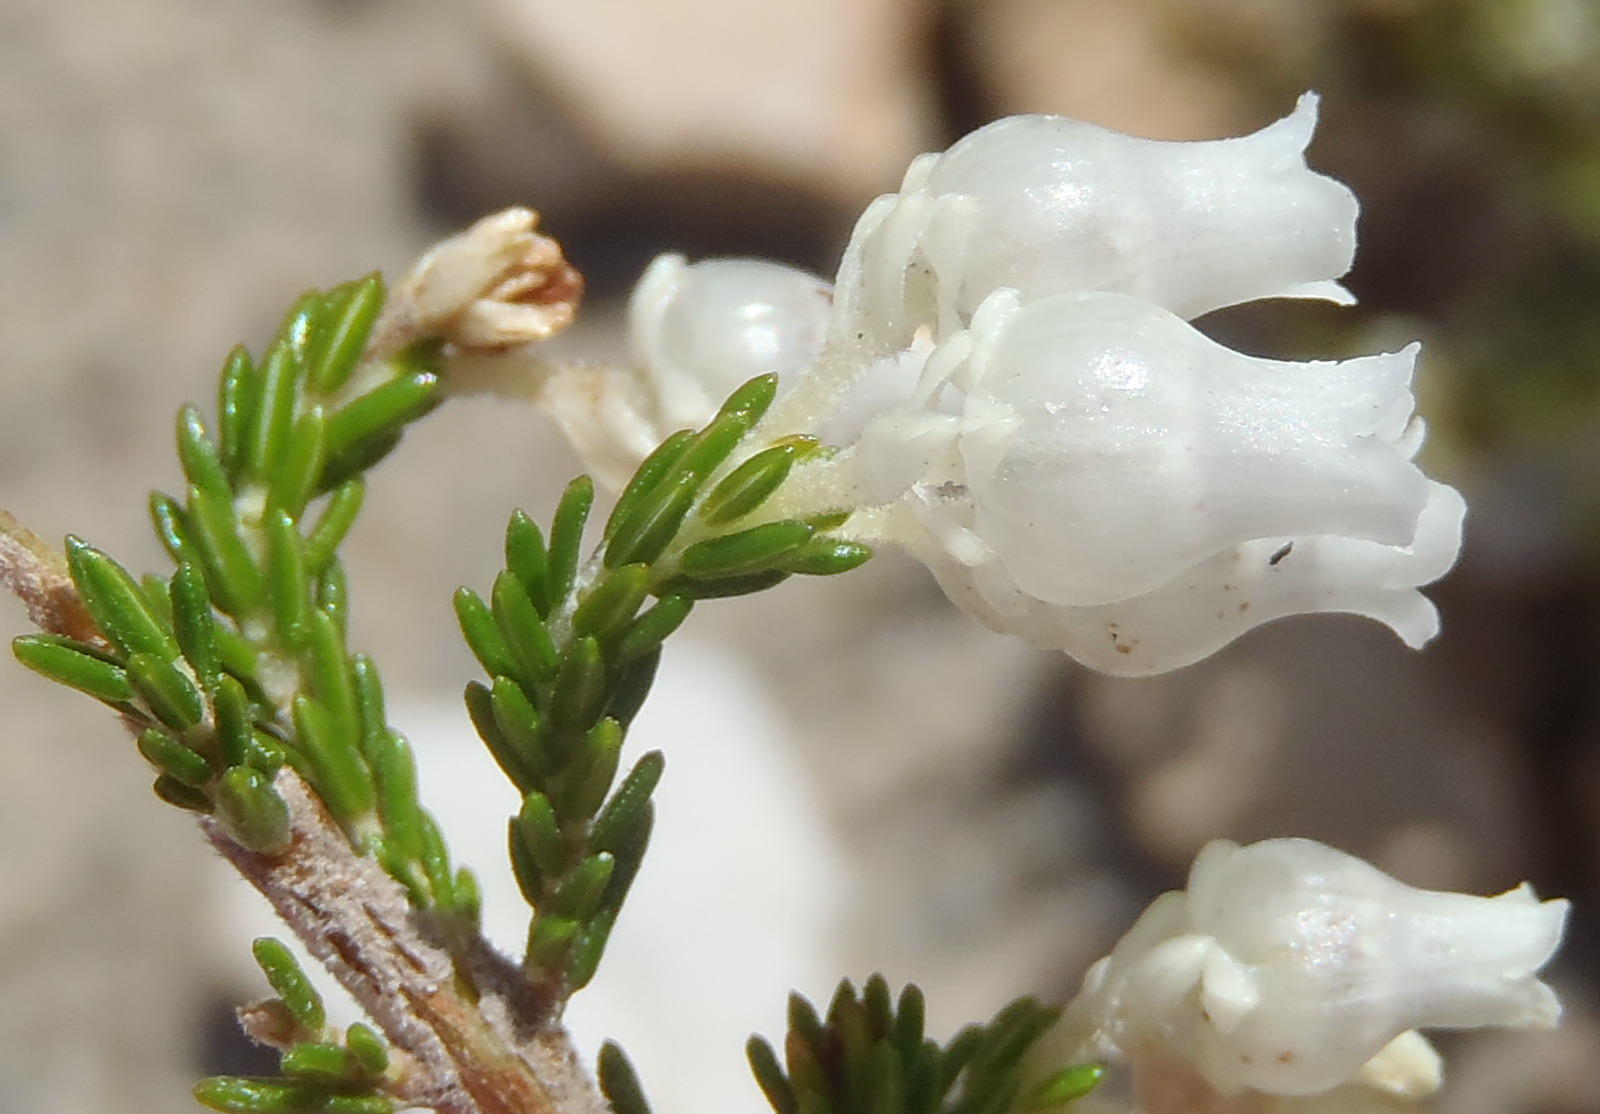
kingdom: Plantae
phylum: Tracheophyta
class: Magnoliopsida
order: Ericales
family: Ericaceae
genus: Erica
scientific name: Erica glomiflora
